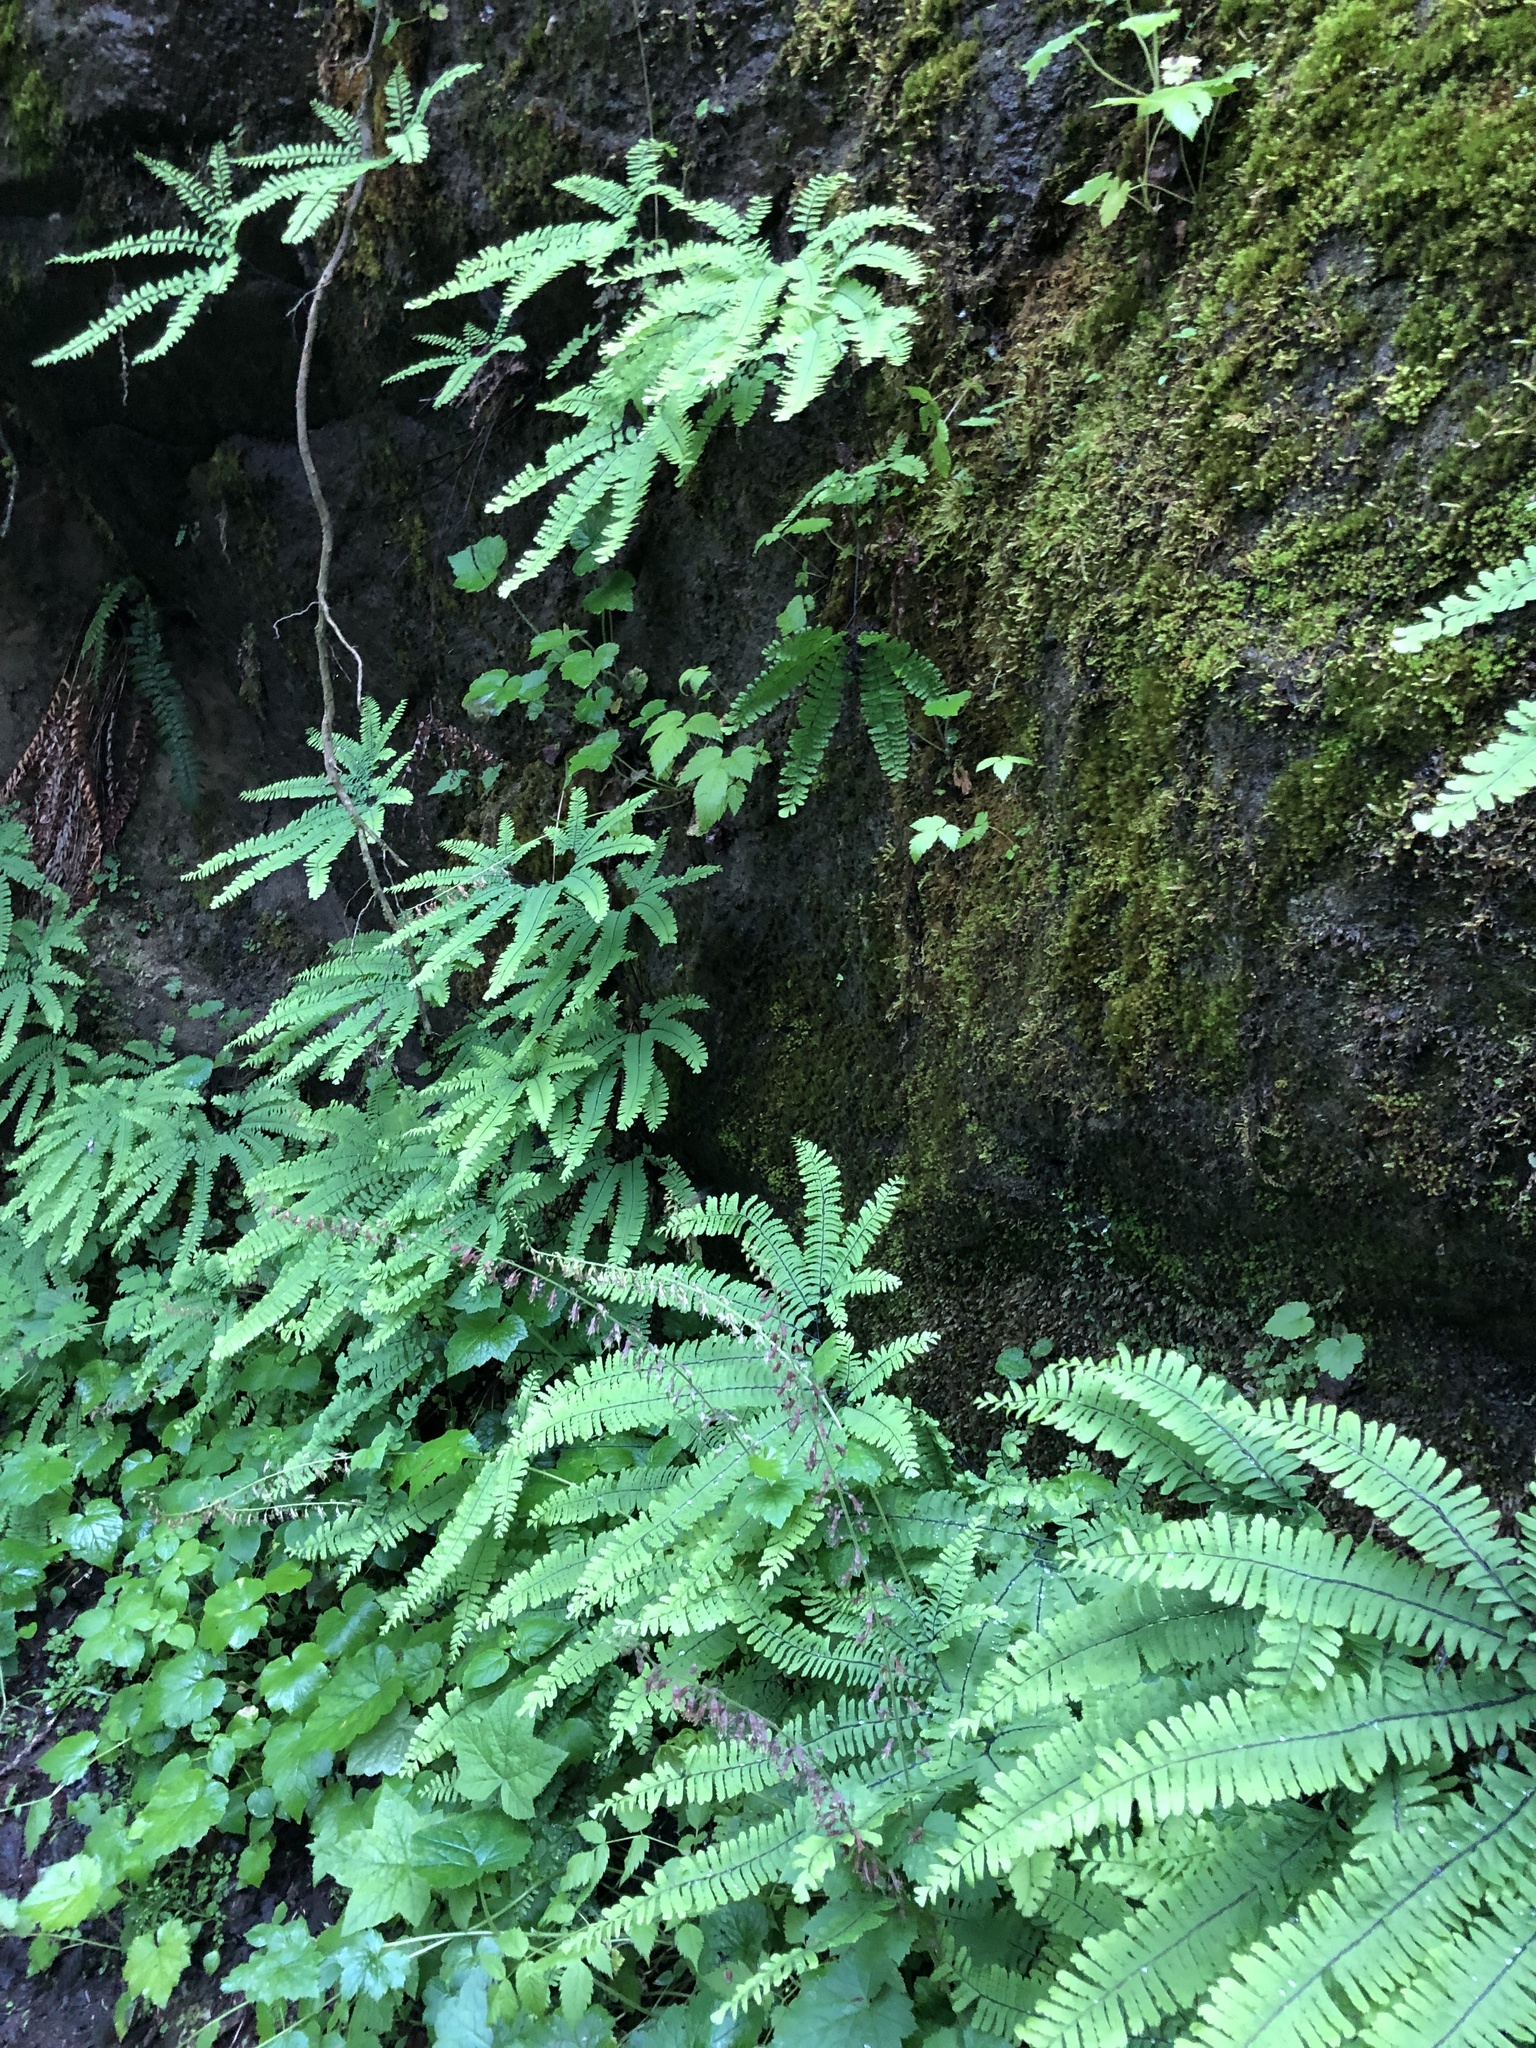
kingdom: Plantae
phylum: Tracheophyta
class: Polypodiopsida
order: Polypodiales
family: Pteridaceae
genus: Adiantum
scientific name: Adiantum aleuticum
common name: Aleutian maidenhair fern
